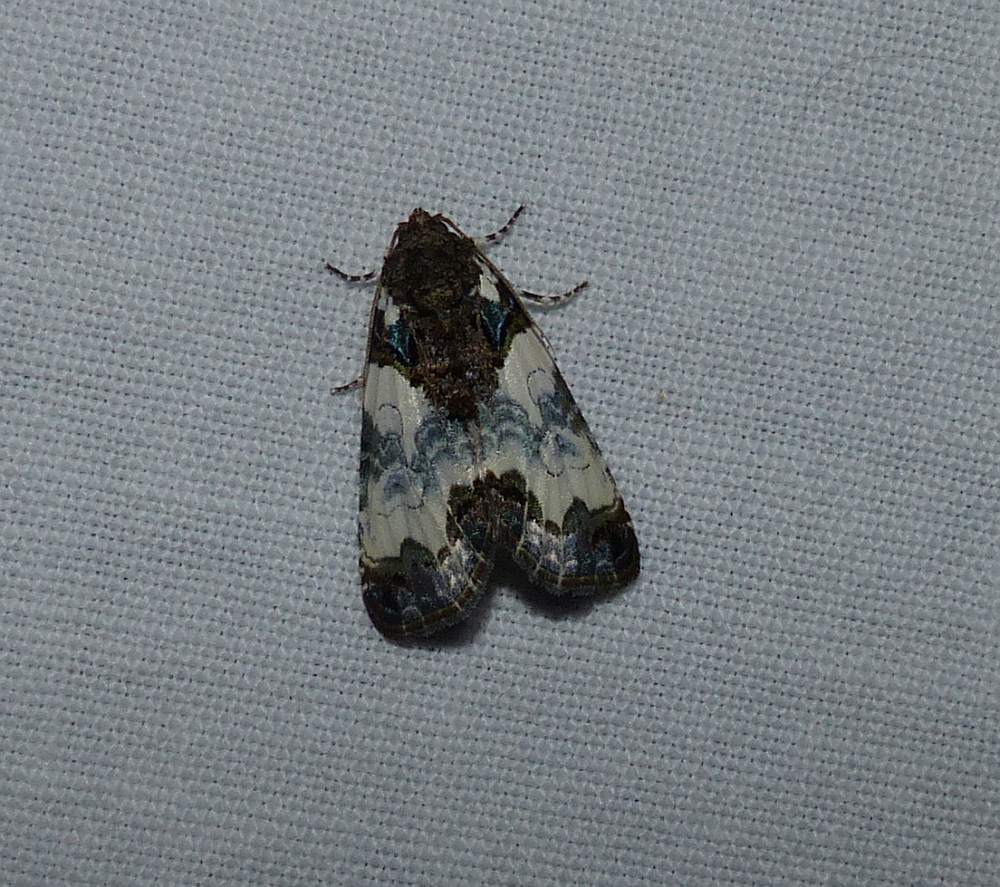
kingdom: Animalia
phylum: Arthropoda
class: Insecta
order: Lepidoptera
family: Noctuidae
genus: Cerma
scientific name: Cerma cerintha
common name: Tufted bird-dropping moth
